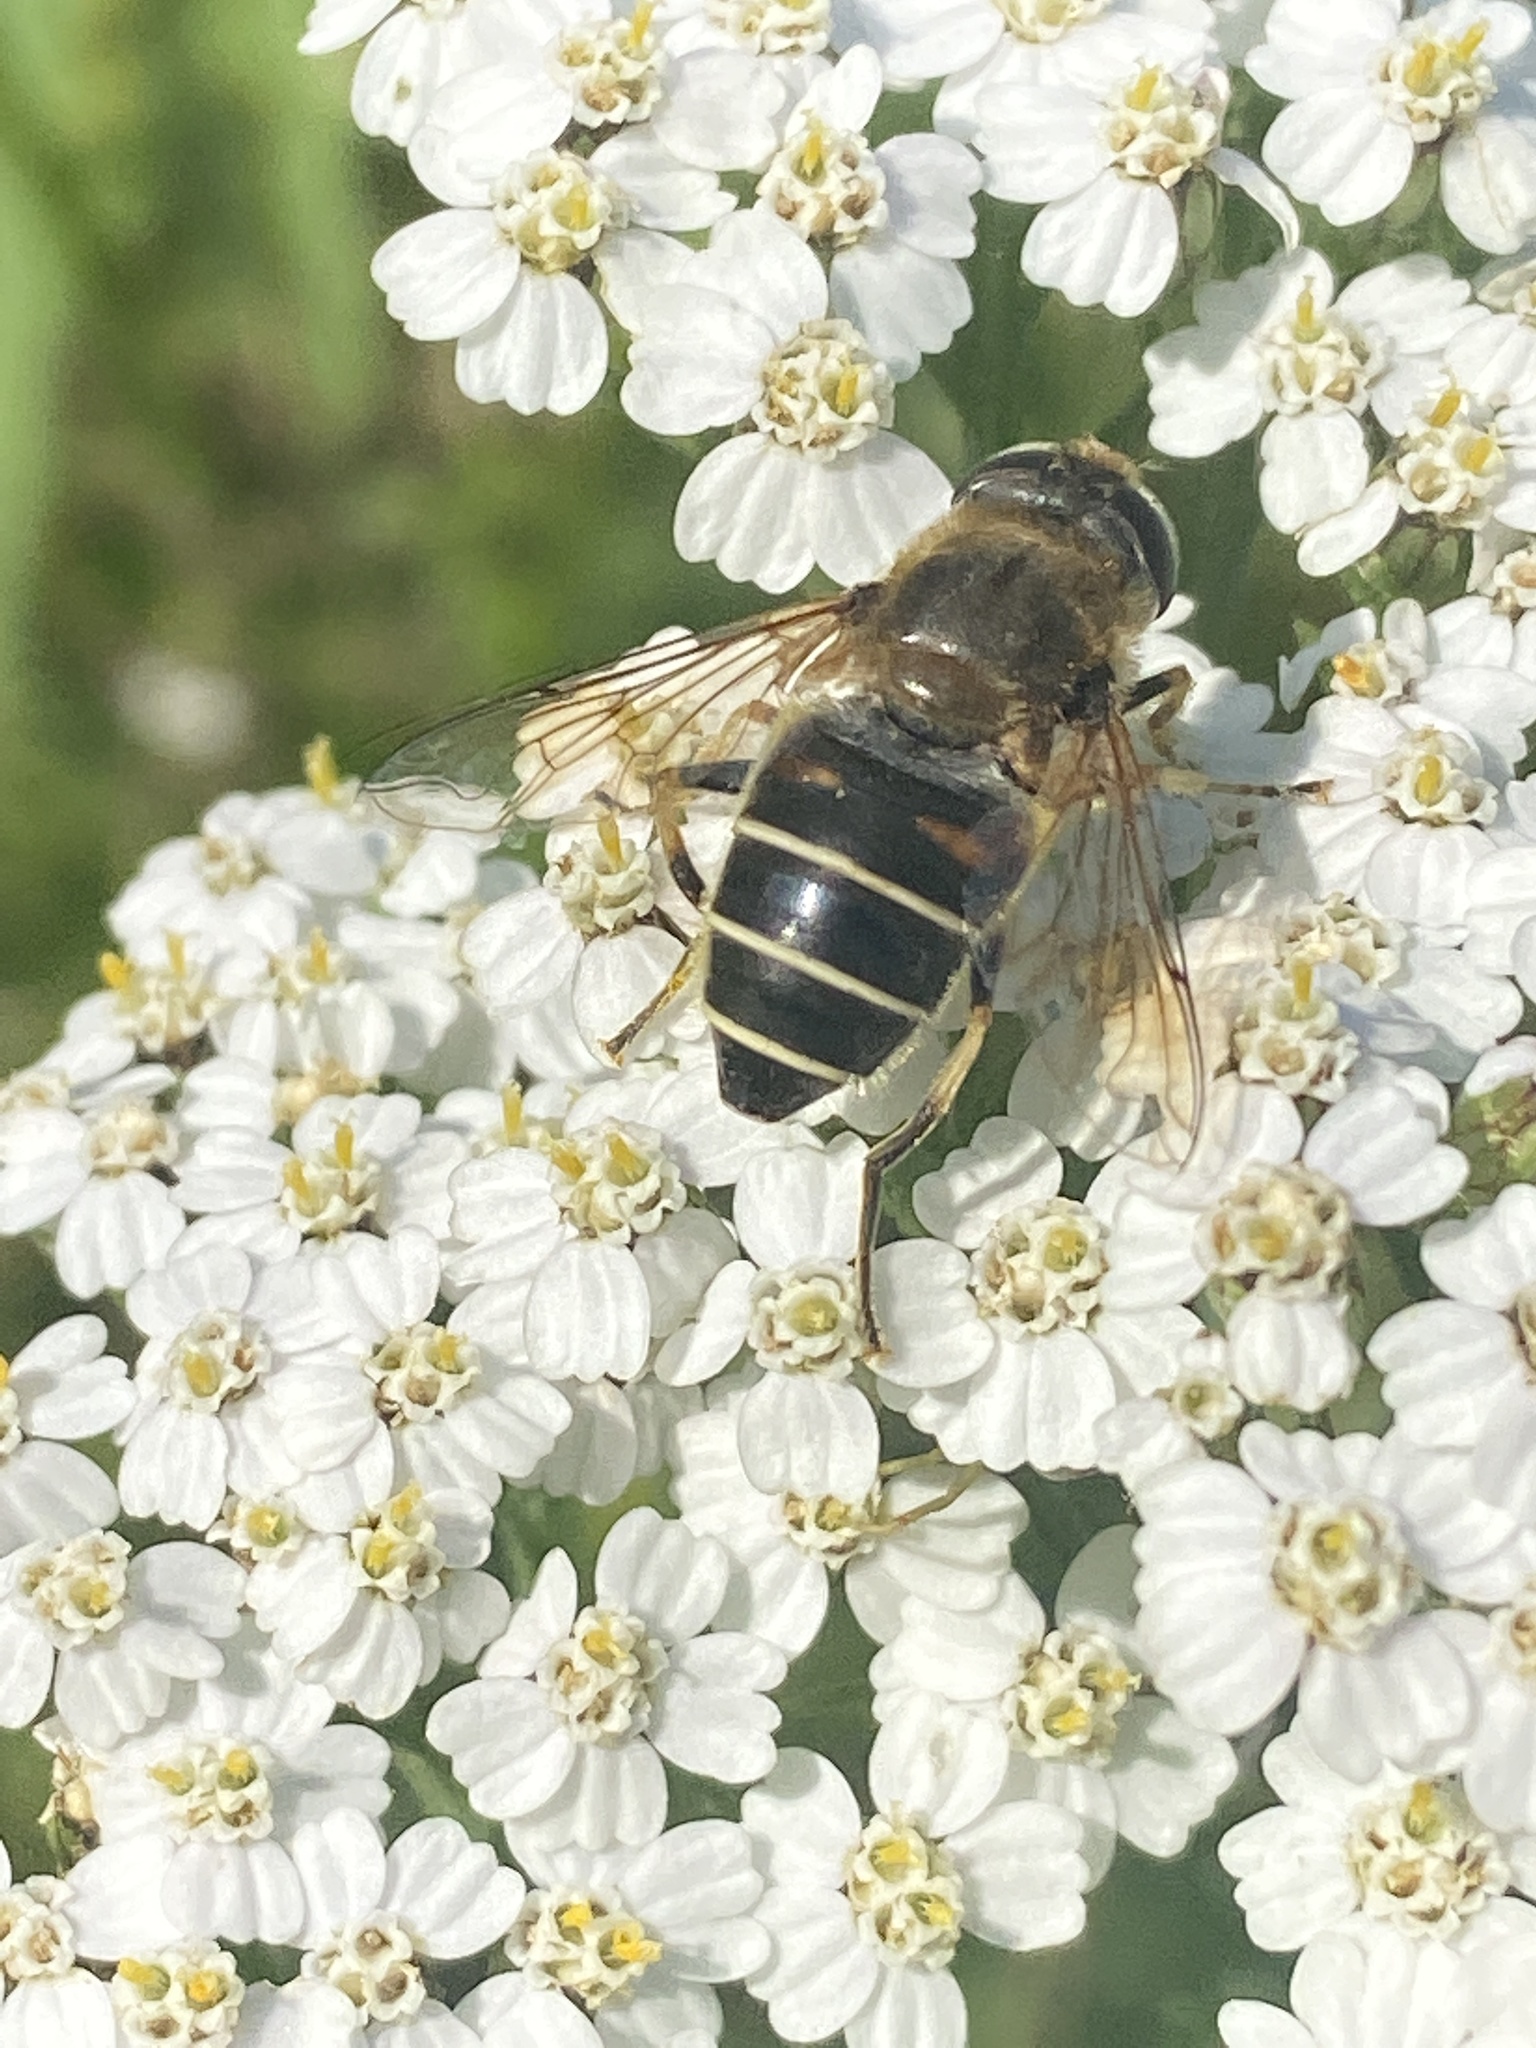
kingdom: Animalia
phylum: Arthropoda
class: Insecta
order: Diptera
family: Syrphidae
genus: Eristalis
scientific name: Eristalis nemorum
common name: Orange-spined drone fly
